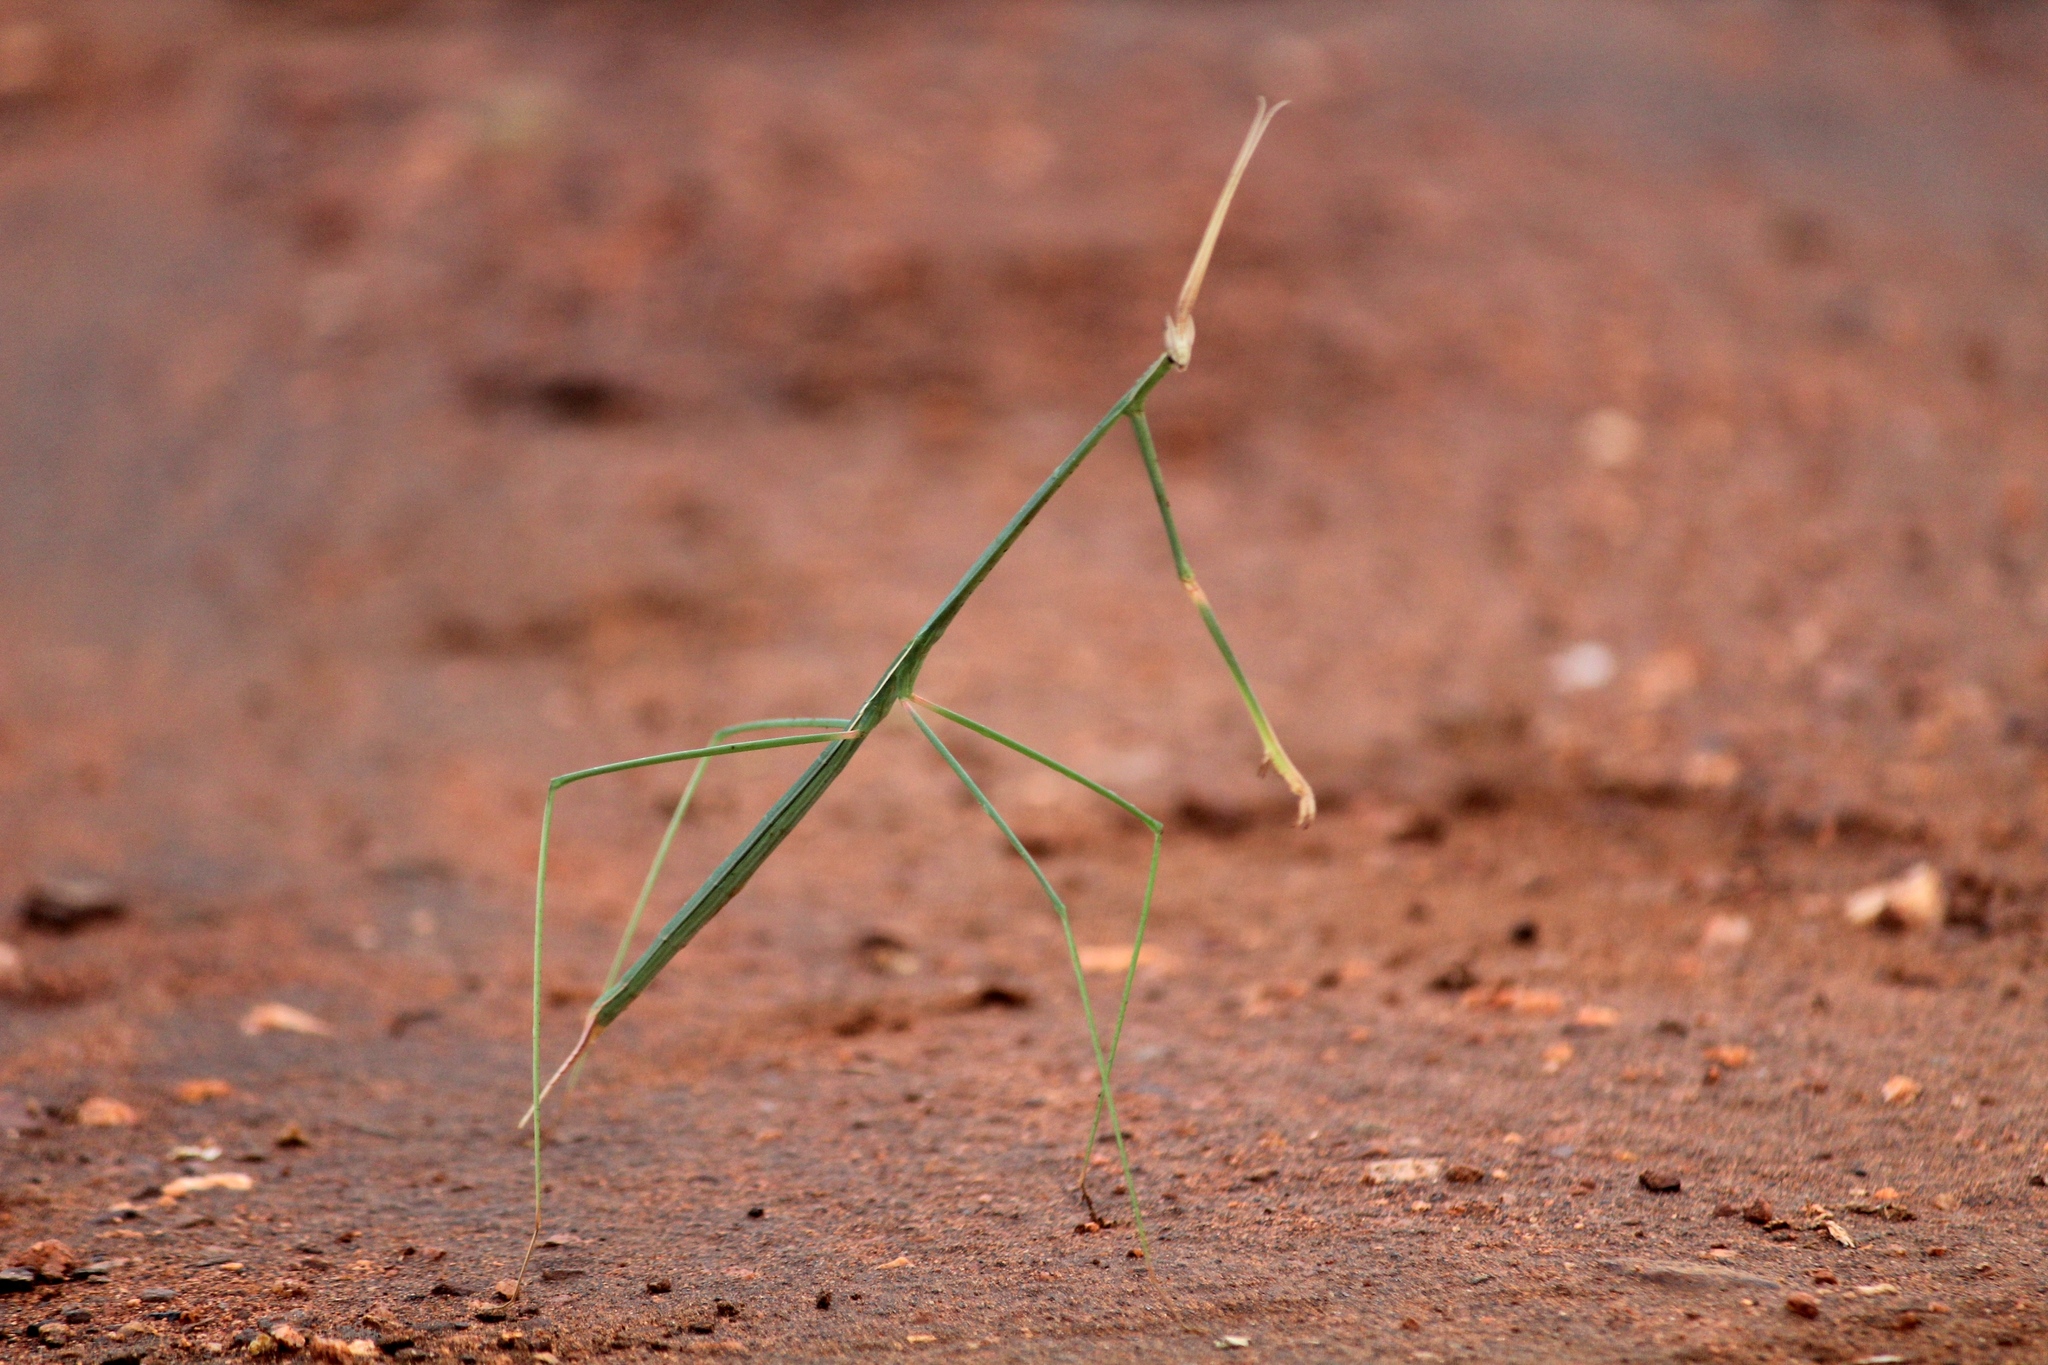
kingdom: Animalia
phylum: Arthropoda
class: Insecta
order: Mantodea
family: Eremiaphilidae
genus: Schizocephala
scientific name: Schizocephala bicornis
